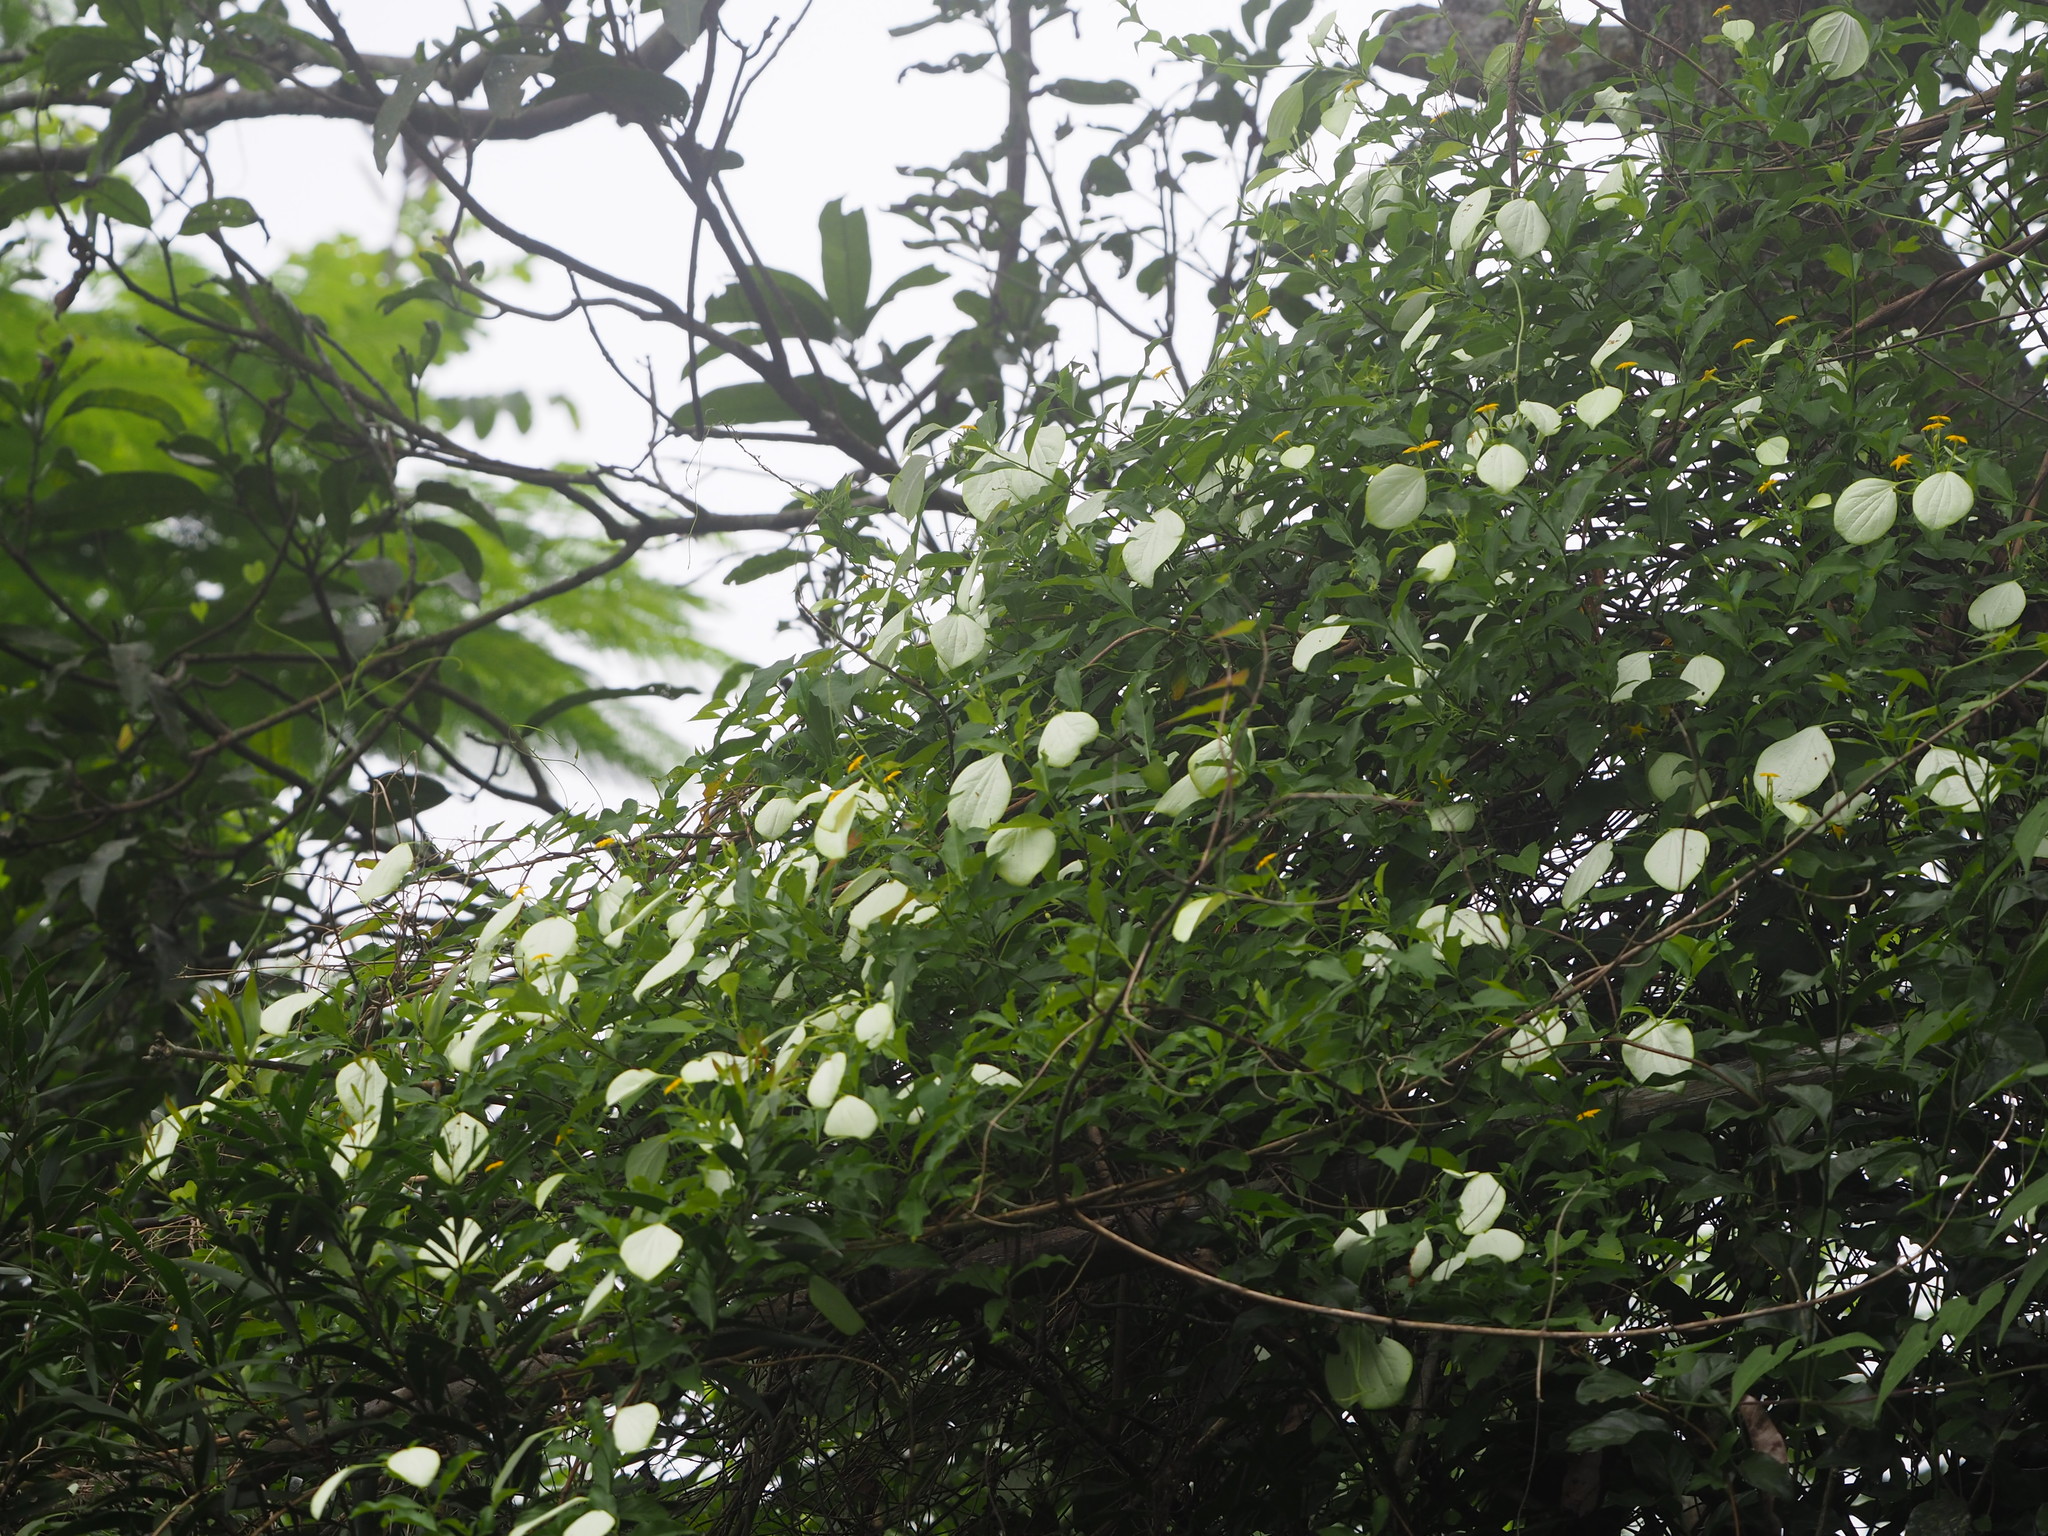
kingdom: Plantae
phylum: Tracheophyta
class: Magnoliopsida
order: Gentianales
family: Rubiaceae
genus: Mussaenda
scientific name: Mussaenda formosana
